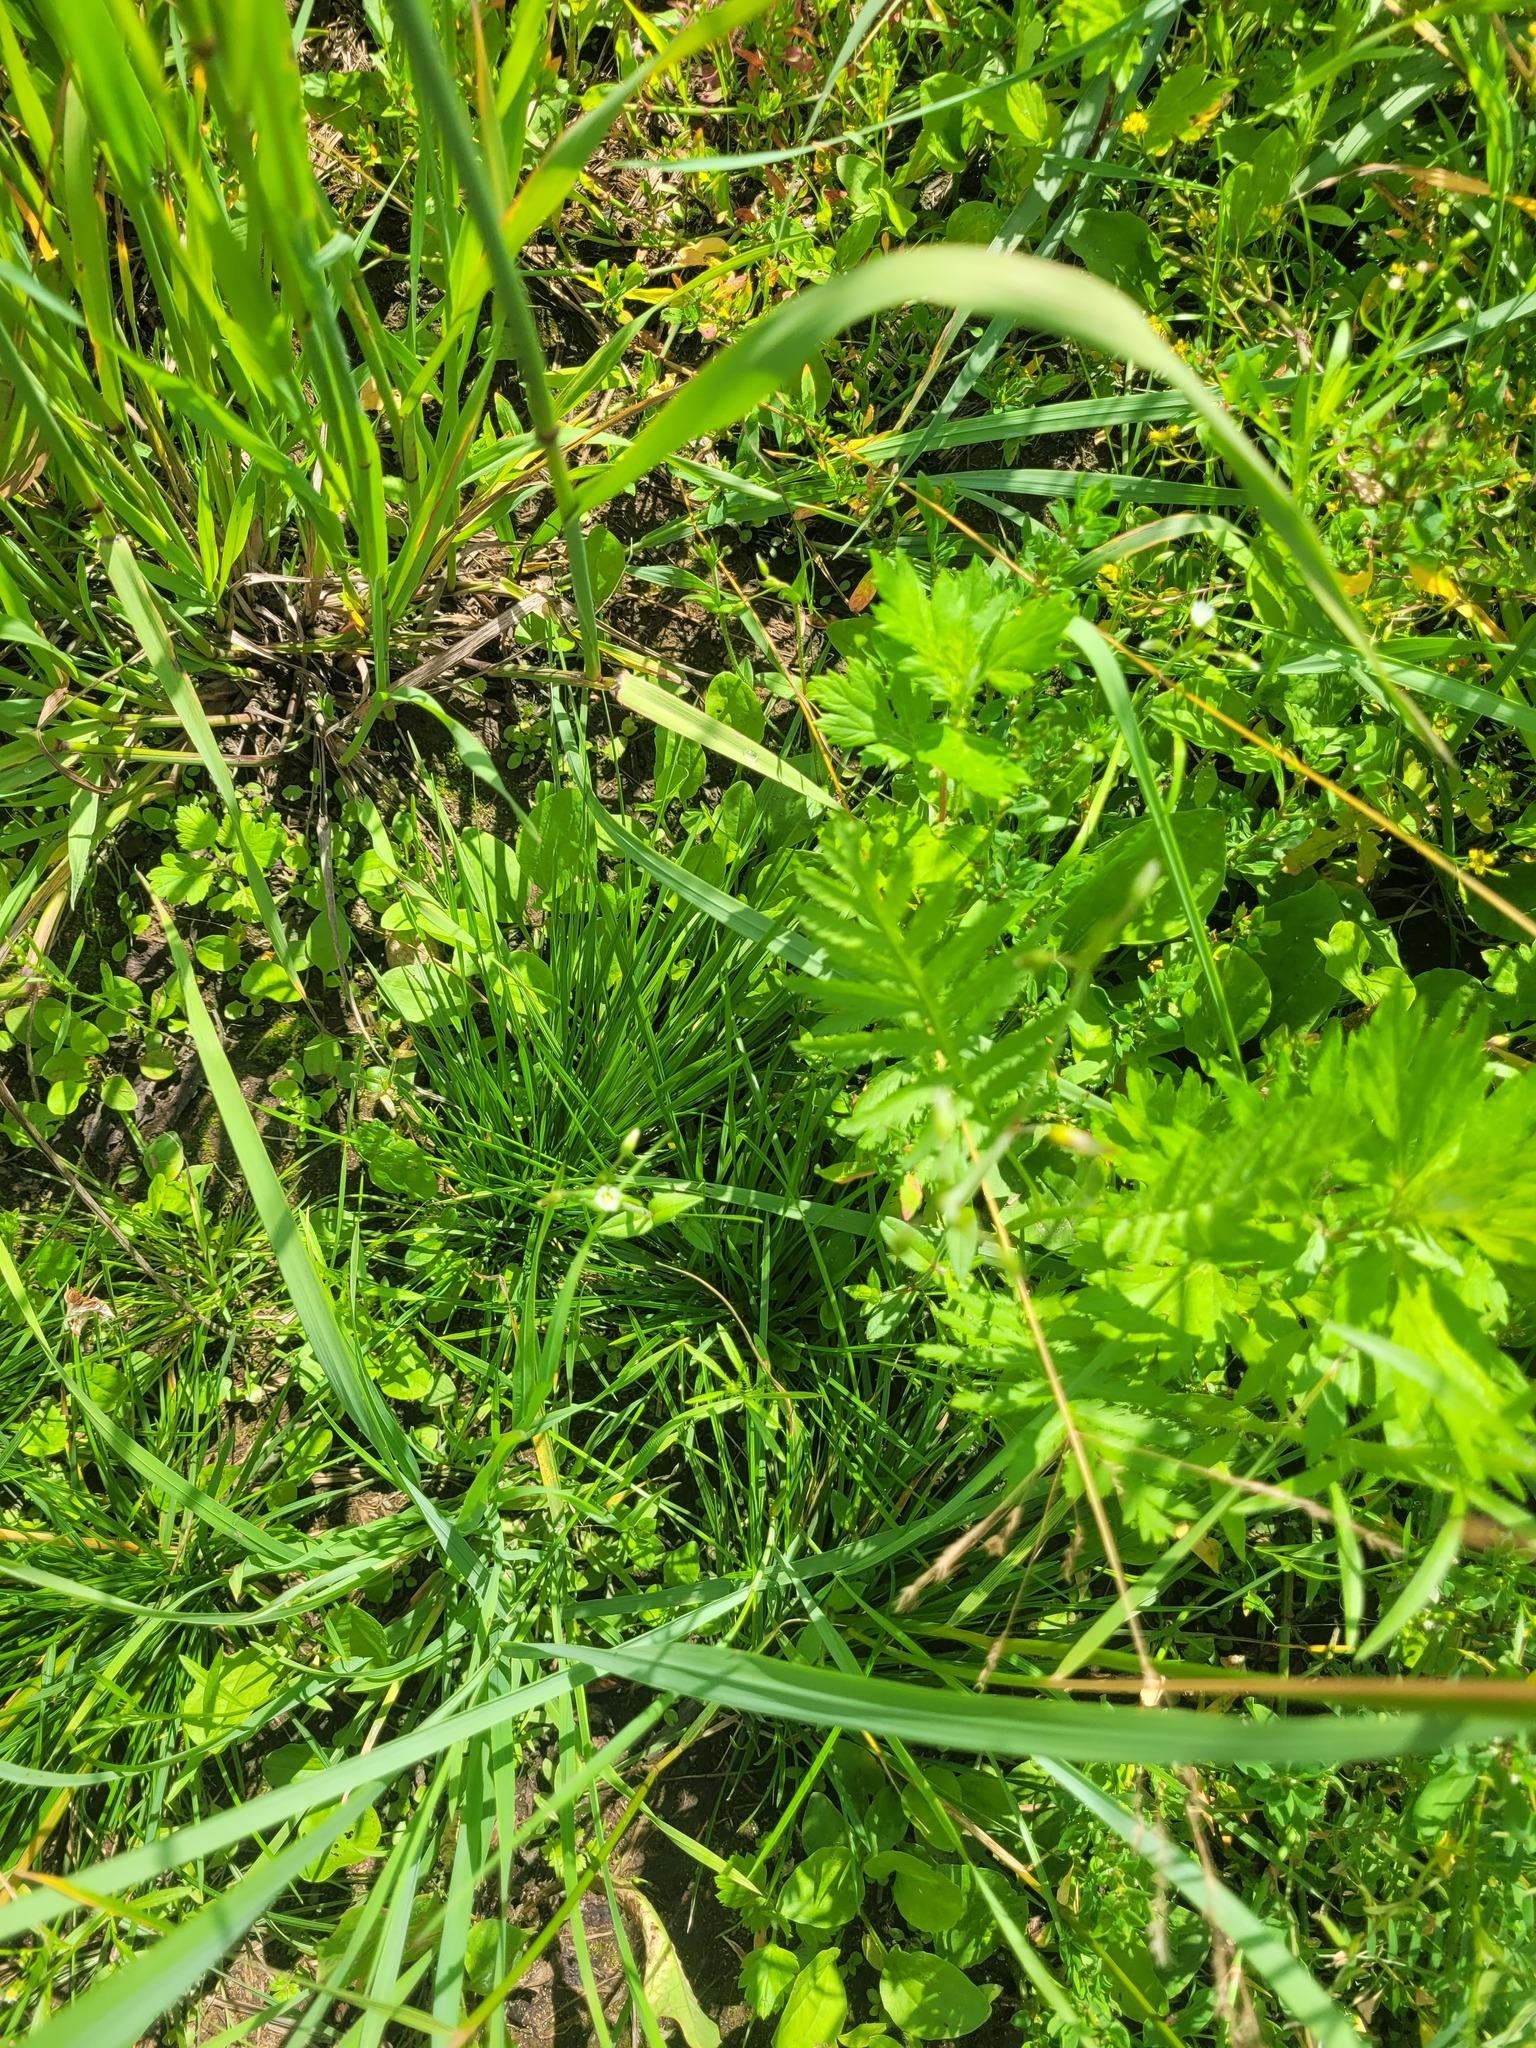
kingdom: Plantae
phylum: Tracheophyta
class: Liliopsida
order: Poales
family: Poaceae
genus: Deschampsia
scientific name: Deschampsia cespitosa
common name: Tufted hair-grass
